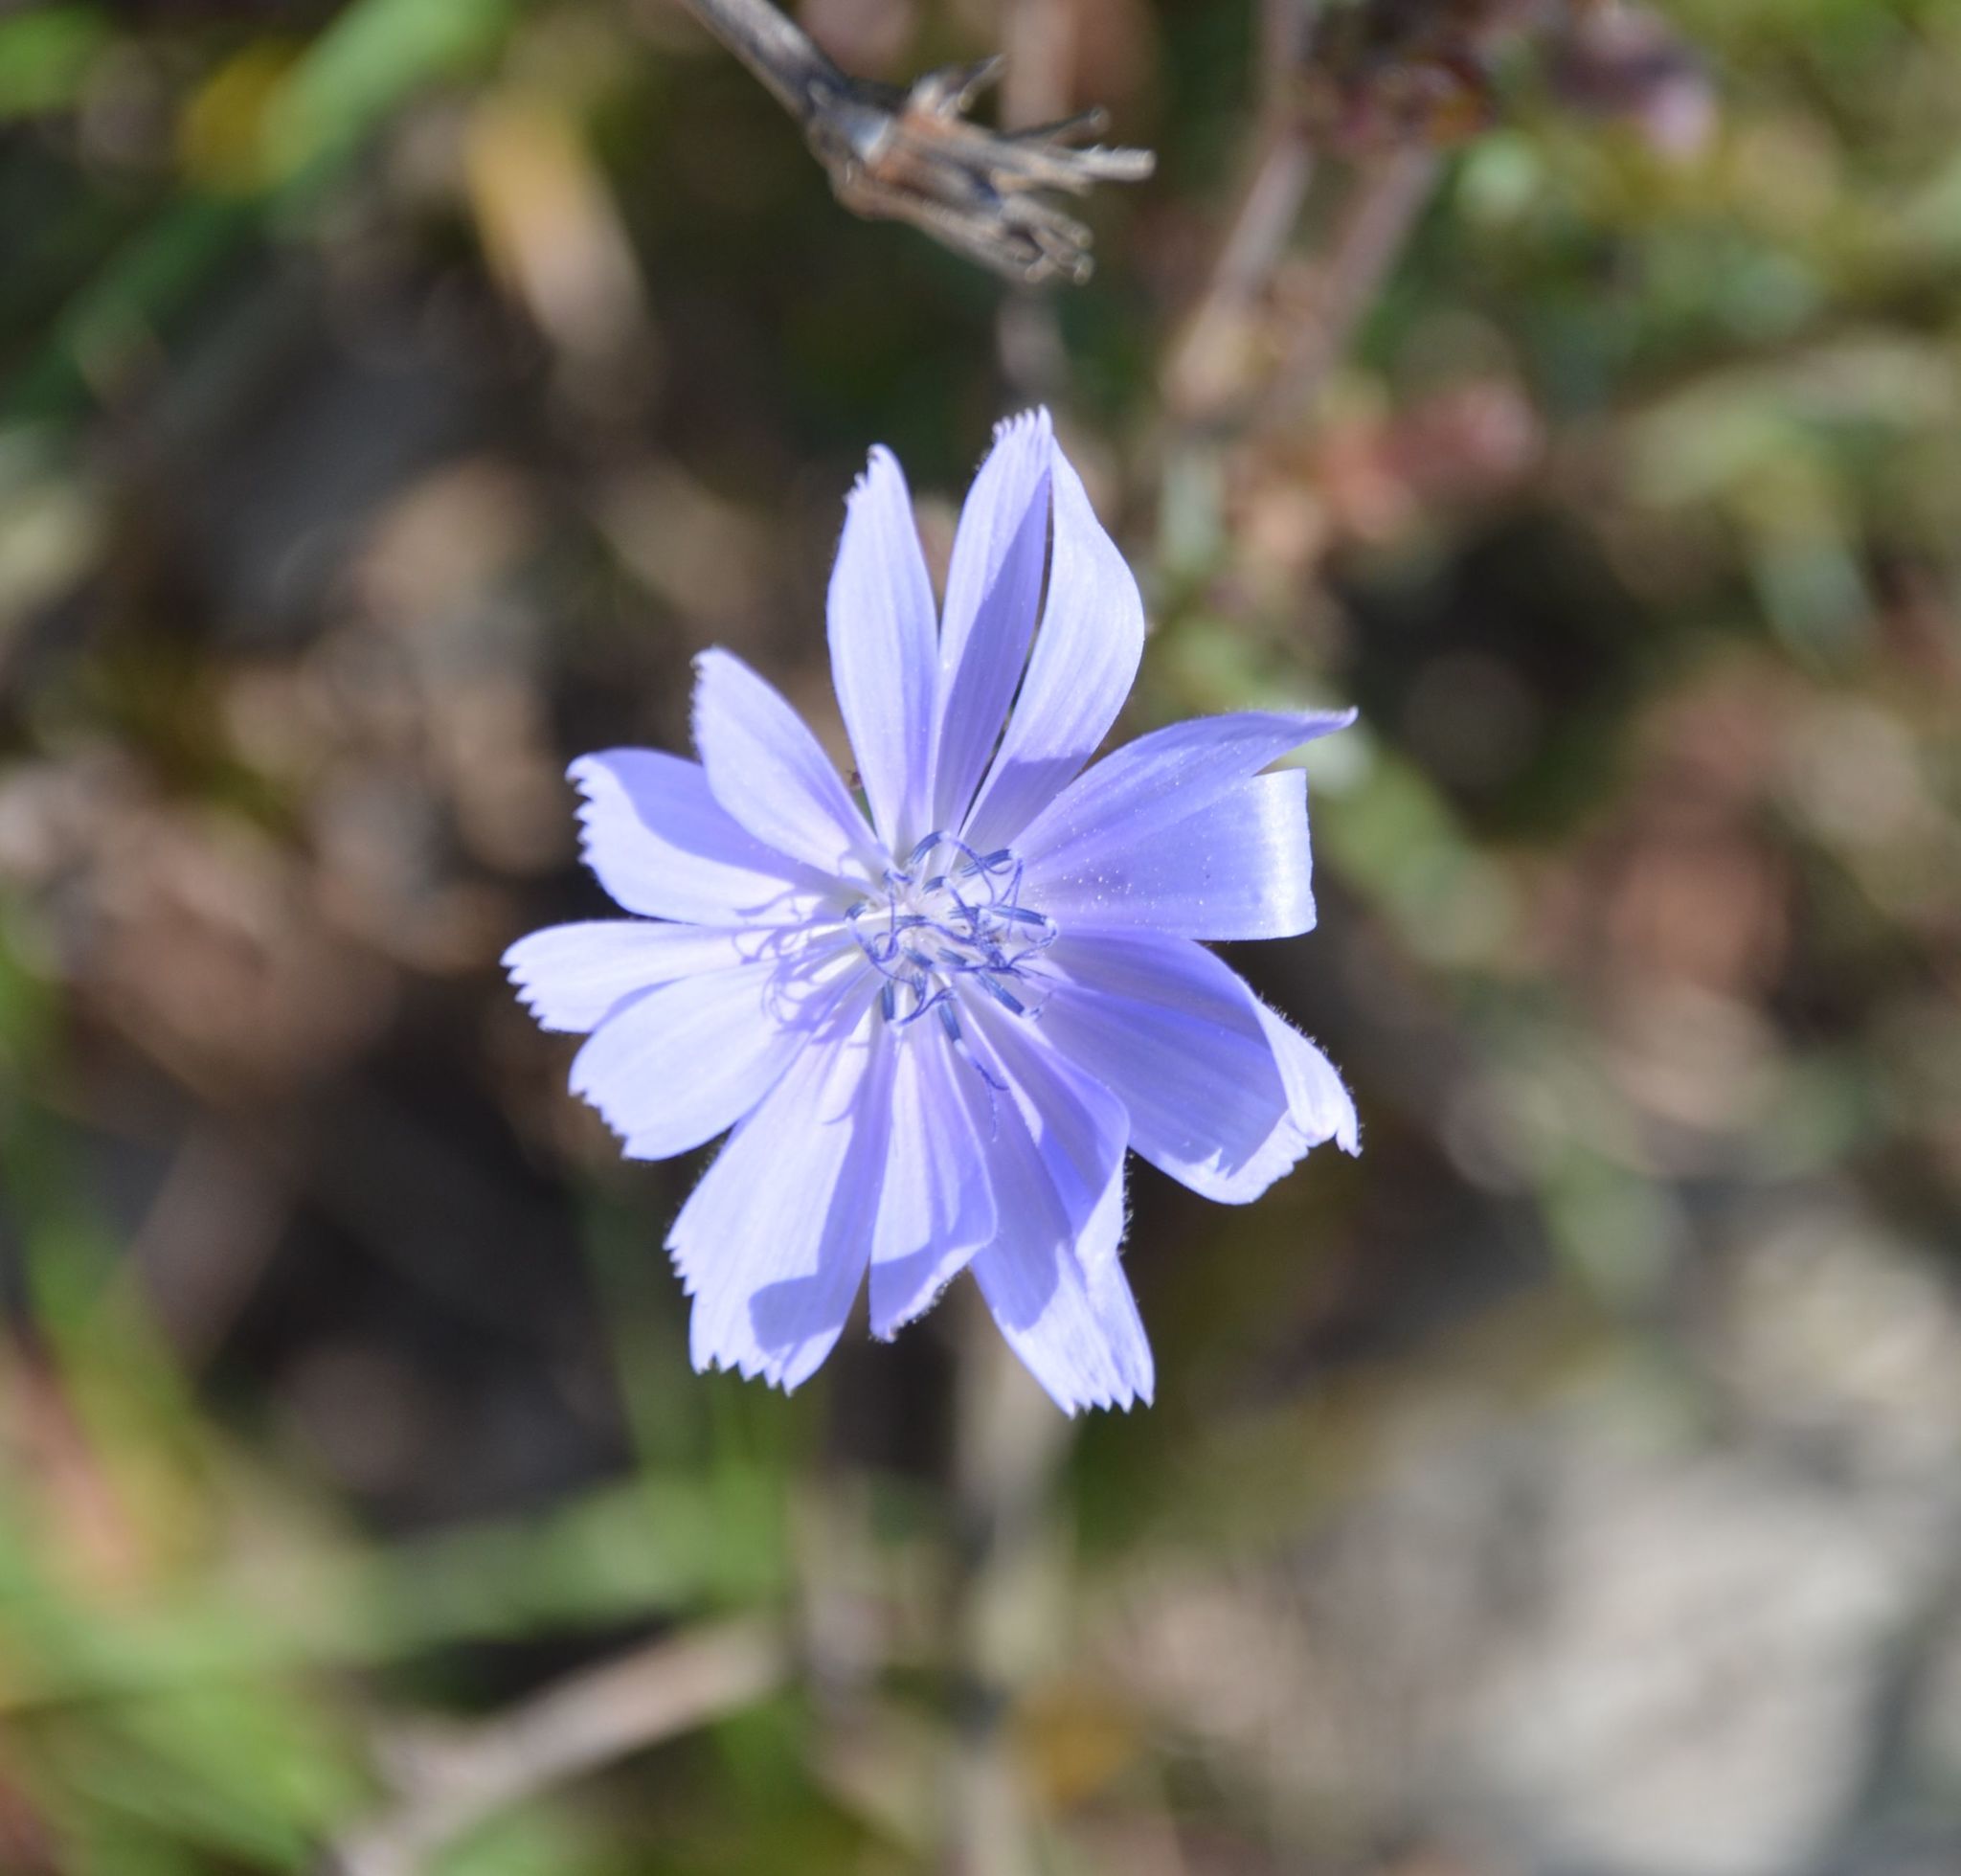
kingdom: Plantae
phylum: Tracheophyta
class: Magnoliopsida
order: Asterales
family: Asteraceae
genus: Cichorium
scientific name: Cichorium intybus
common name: Chicory
